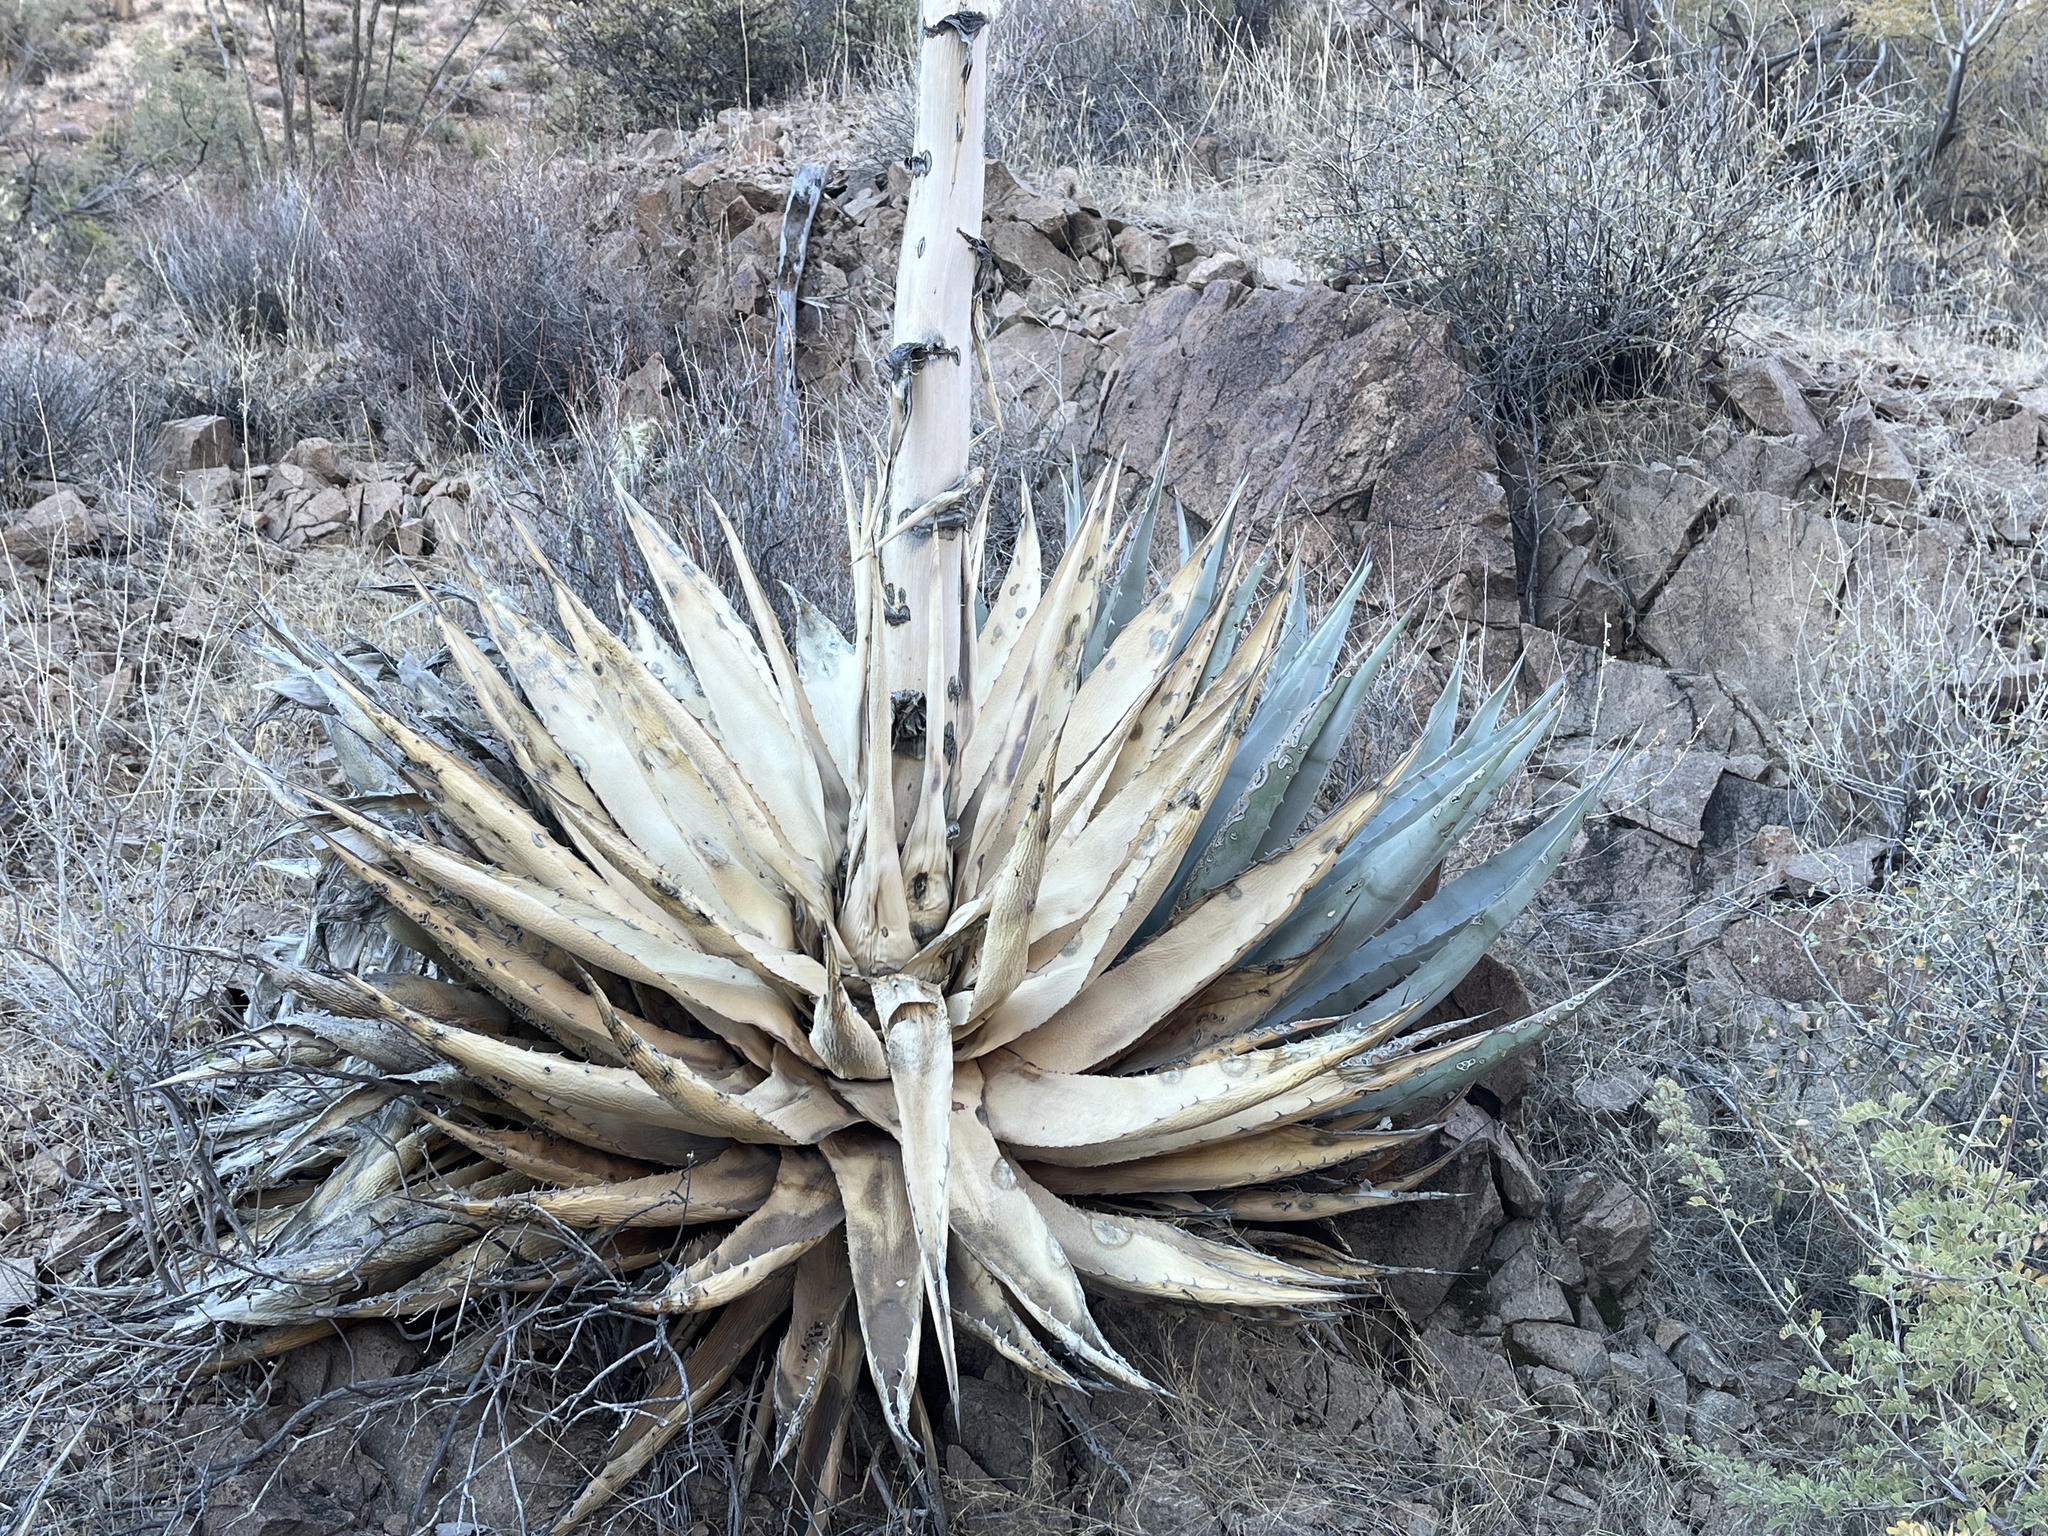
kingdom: Plantae
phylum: Tracheophyta
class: Liliopsida
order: Asparagales
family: Asparagaceae
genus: Agave
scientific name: Agave simplex
